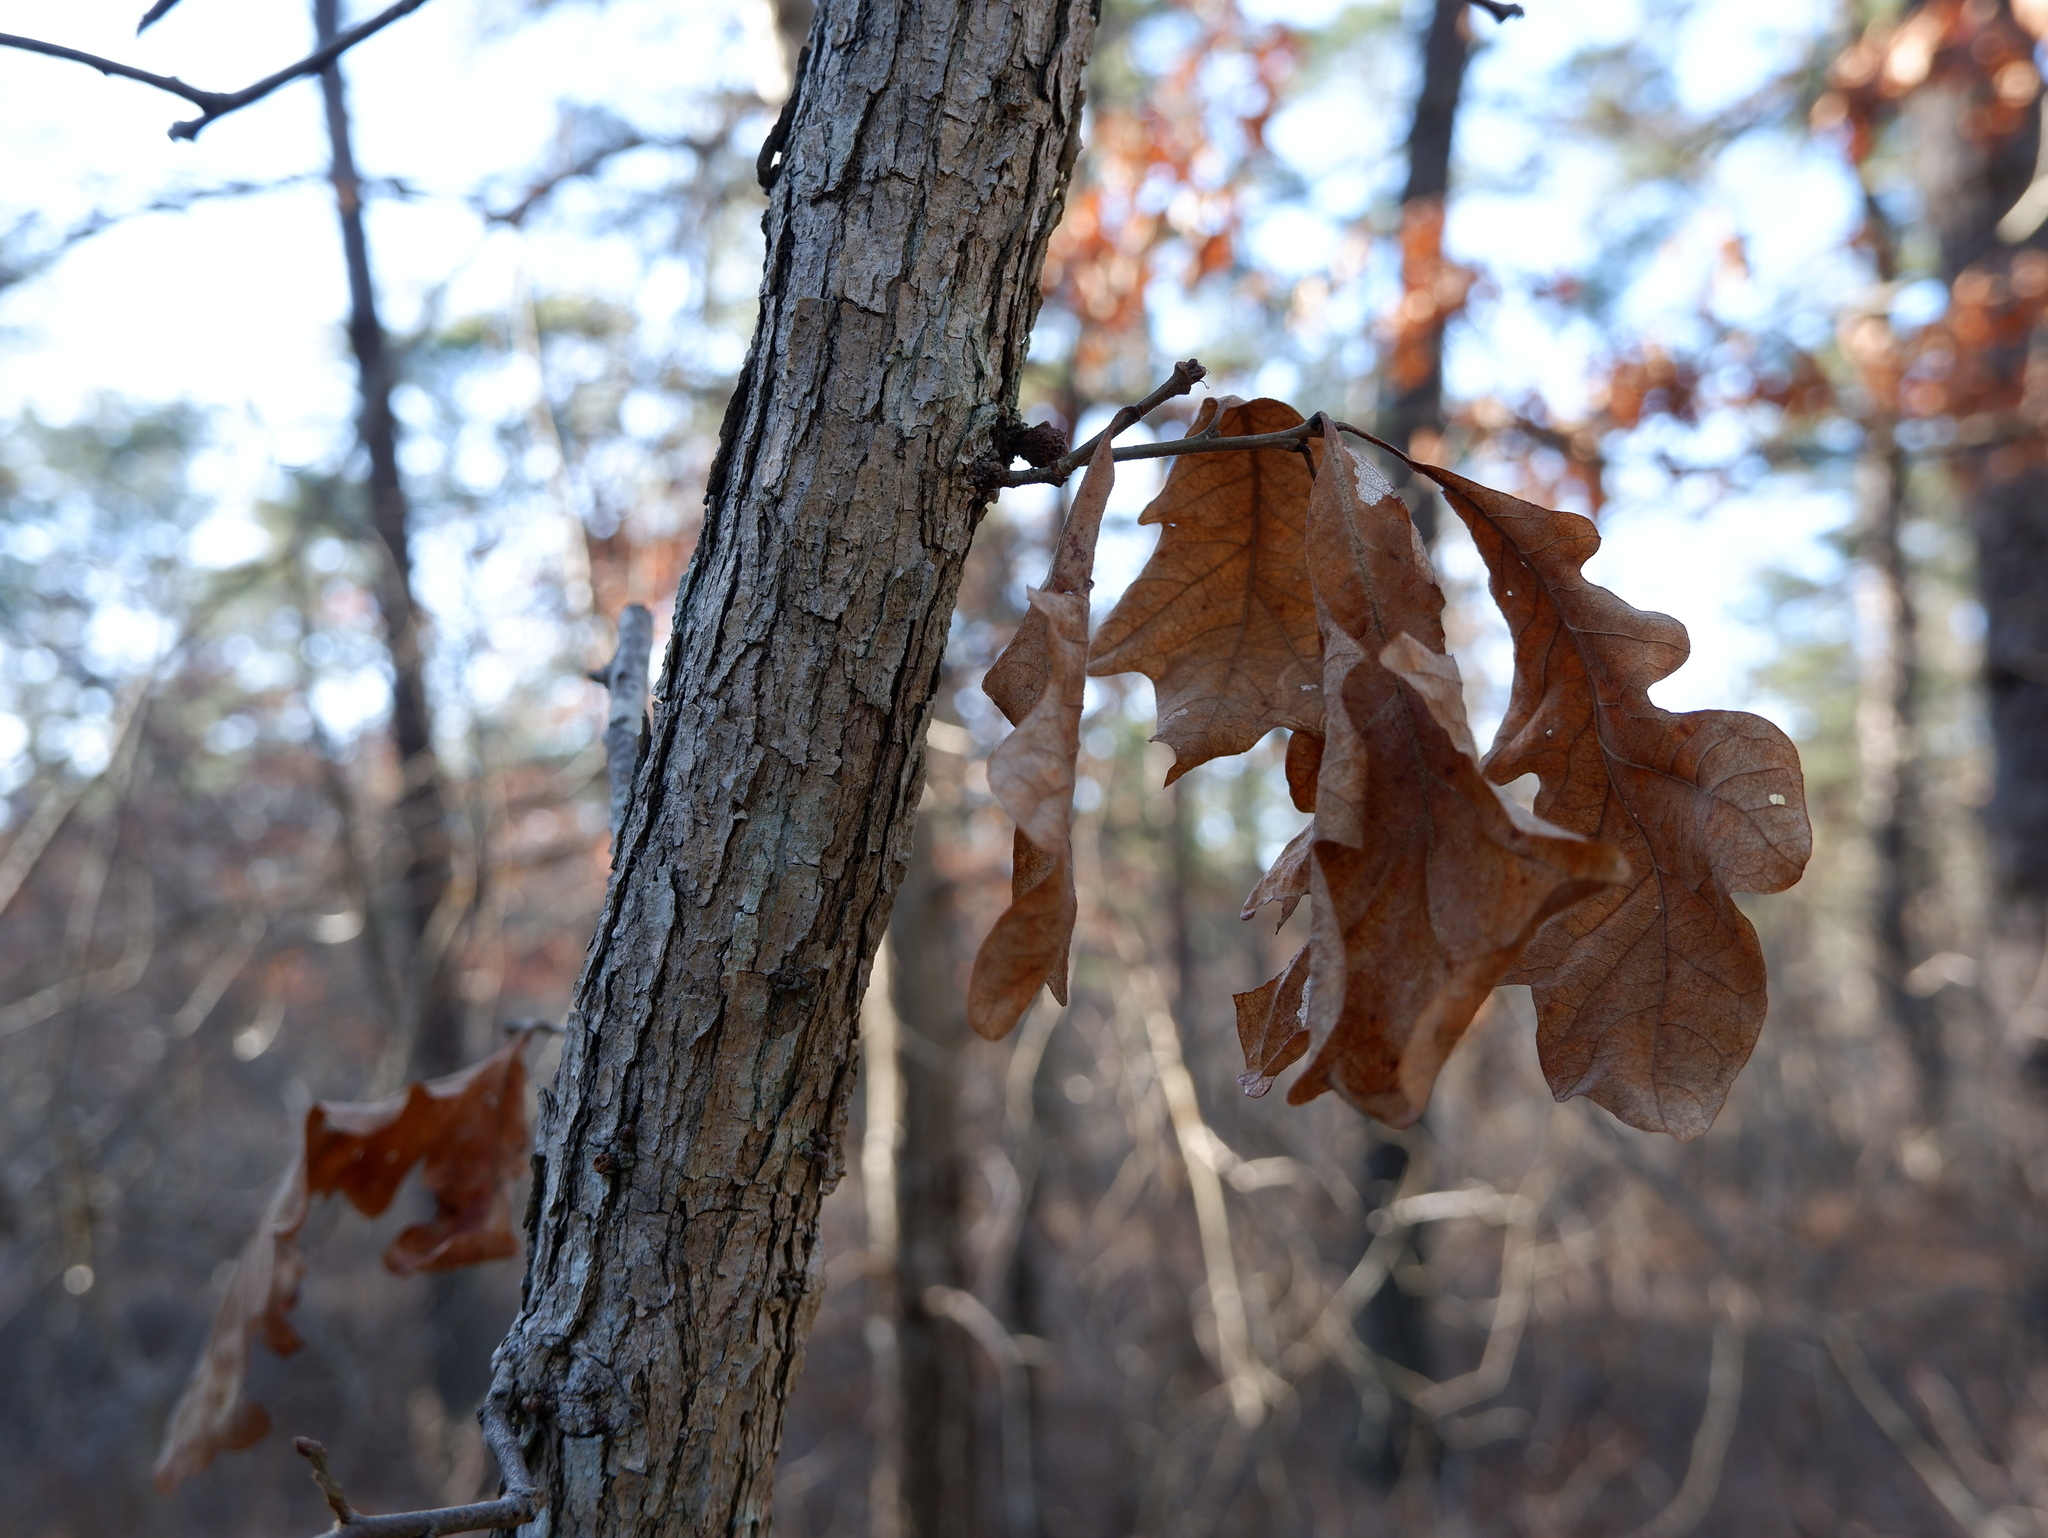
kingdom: Plantae
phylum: Tracheophyta
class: Magnoliopsida
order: Fagales
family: Fagaceae
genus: Quercus
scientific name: Quercus alba
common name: White oak
